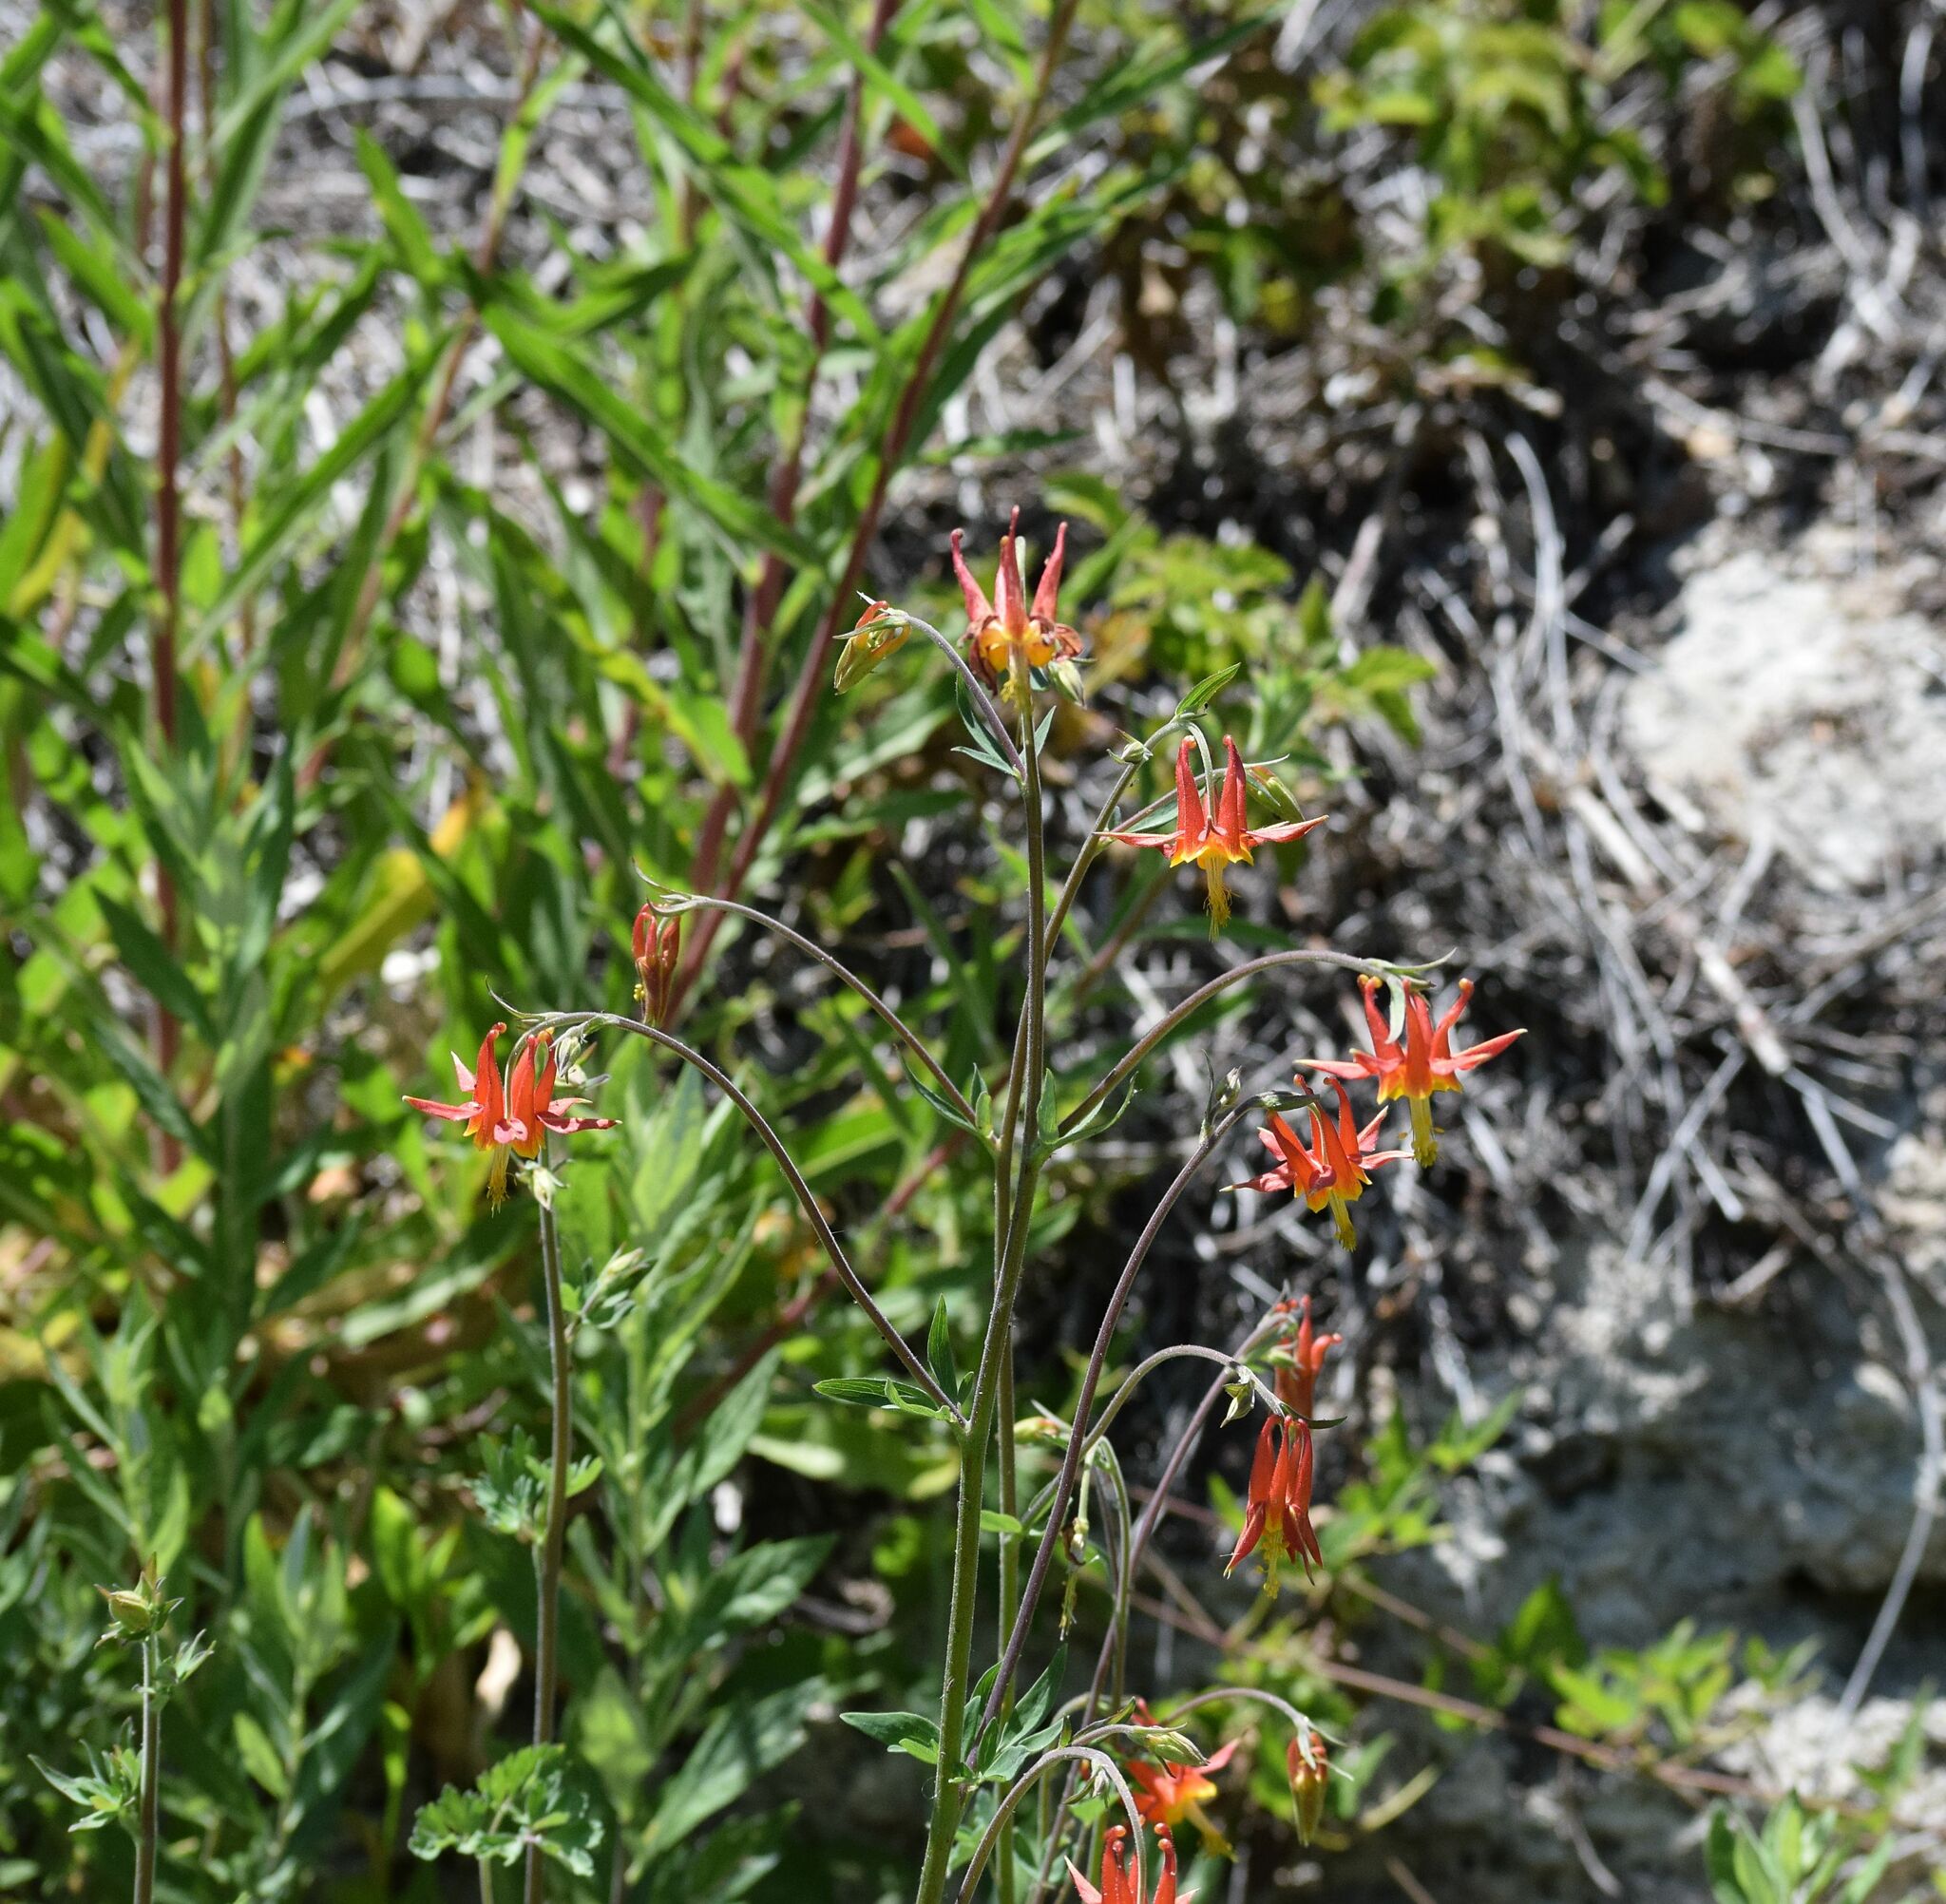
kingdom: Plantae
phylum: Tracheophyta
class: Magnoliopsida
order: Ranunculales
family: Ranunculaceae
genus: Aquilegia
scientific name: Aquilegia formosa
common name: Sitka columbine
